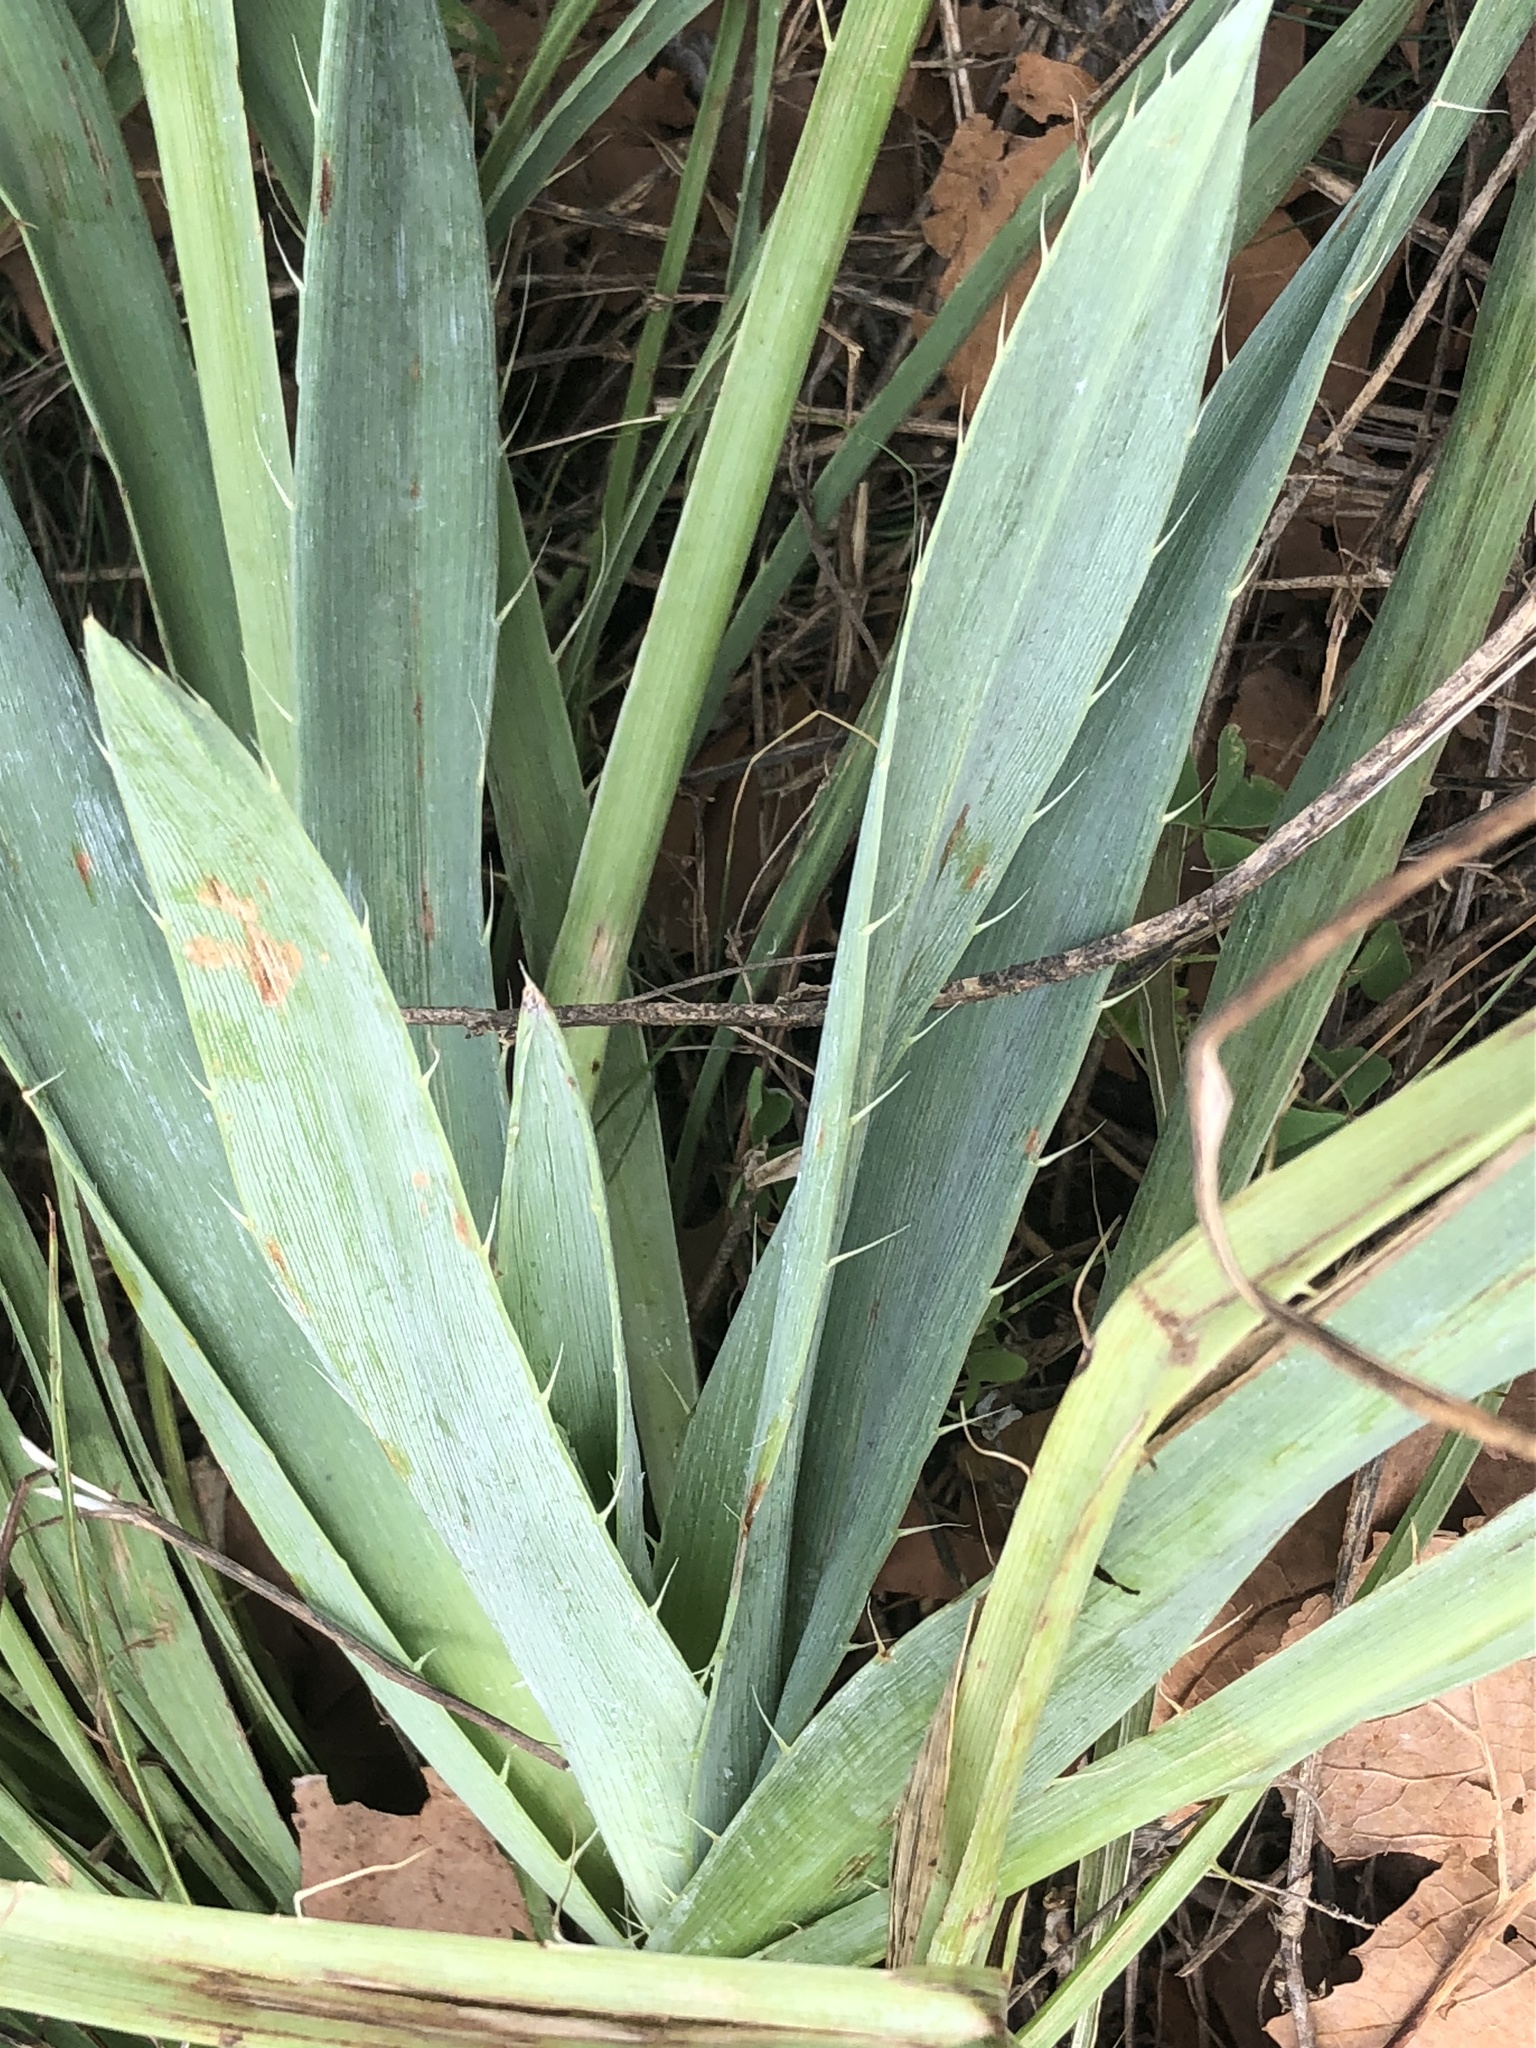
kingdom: Plantae
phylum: Tracheophyta
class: Magnoliopsida
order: Apiales
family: Apiaceae
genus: Eryngium
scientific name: Eryngium yuccifolium
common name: Button eryngo
